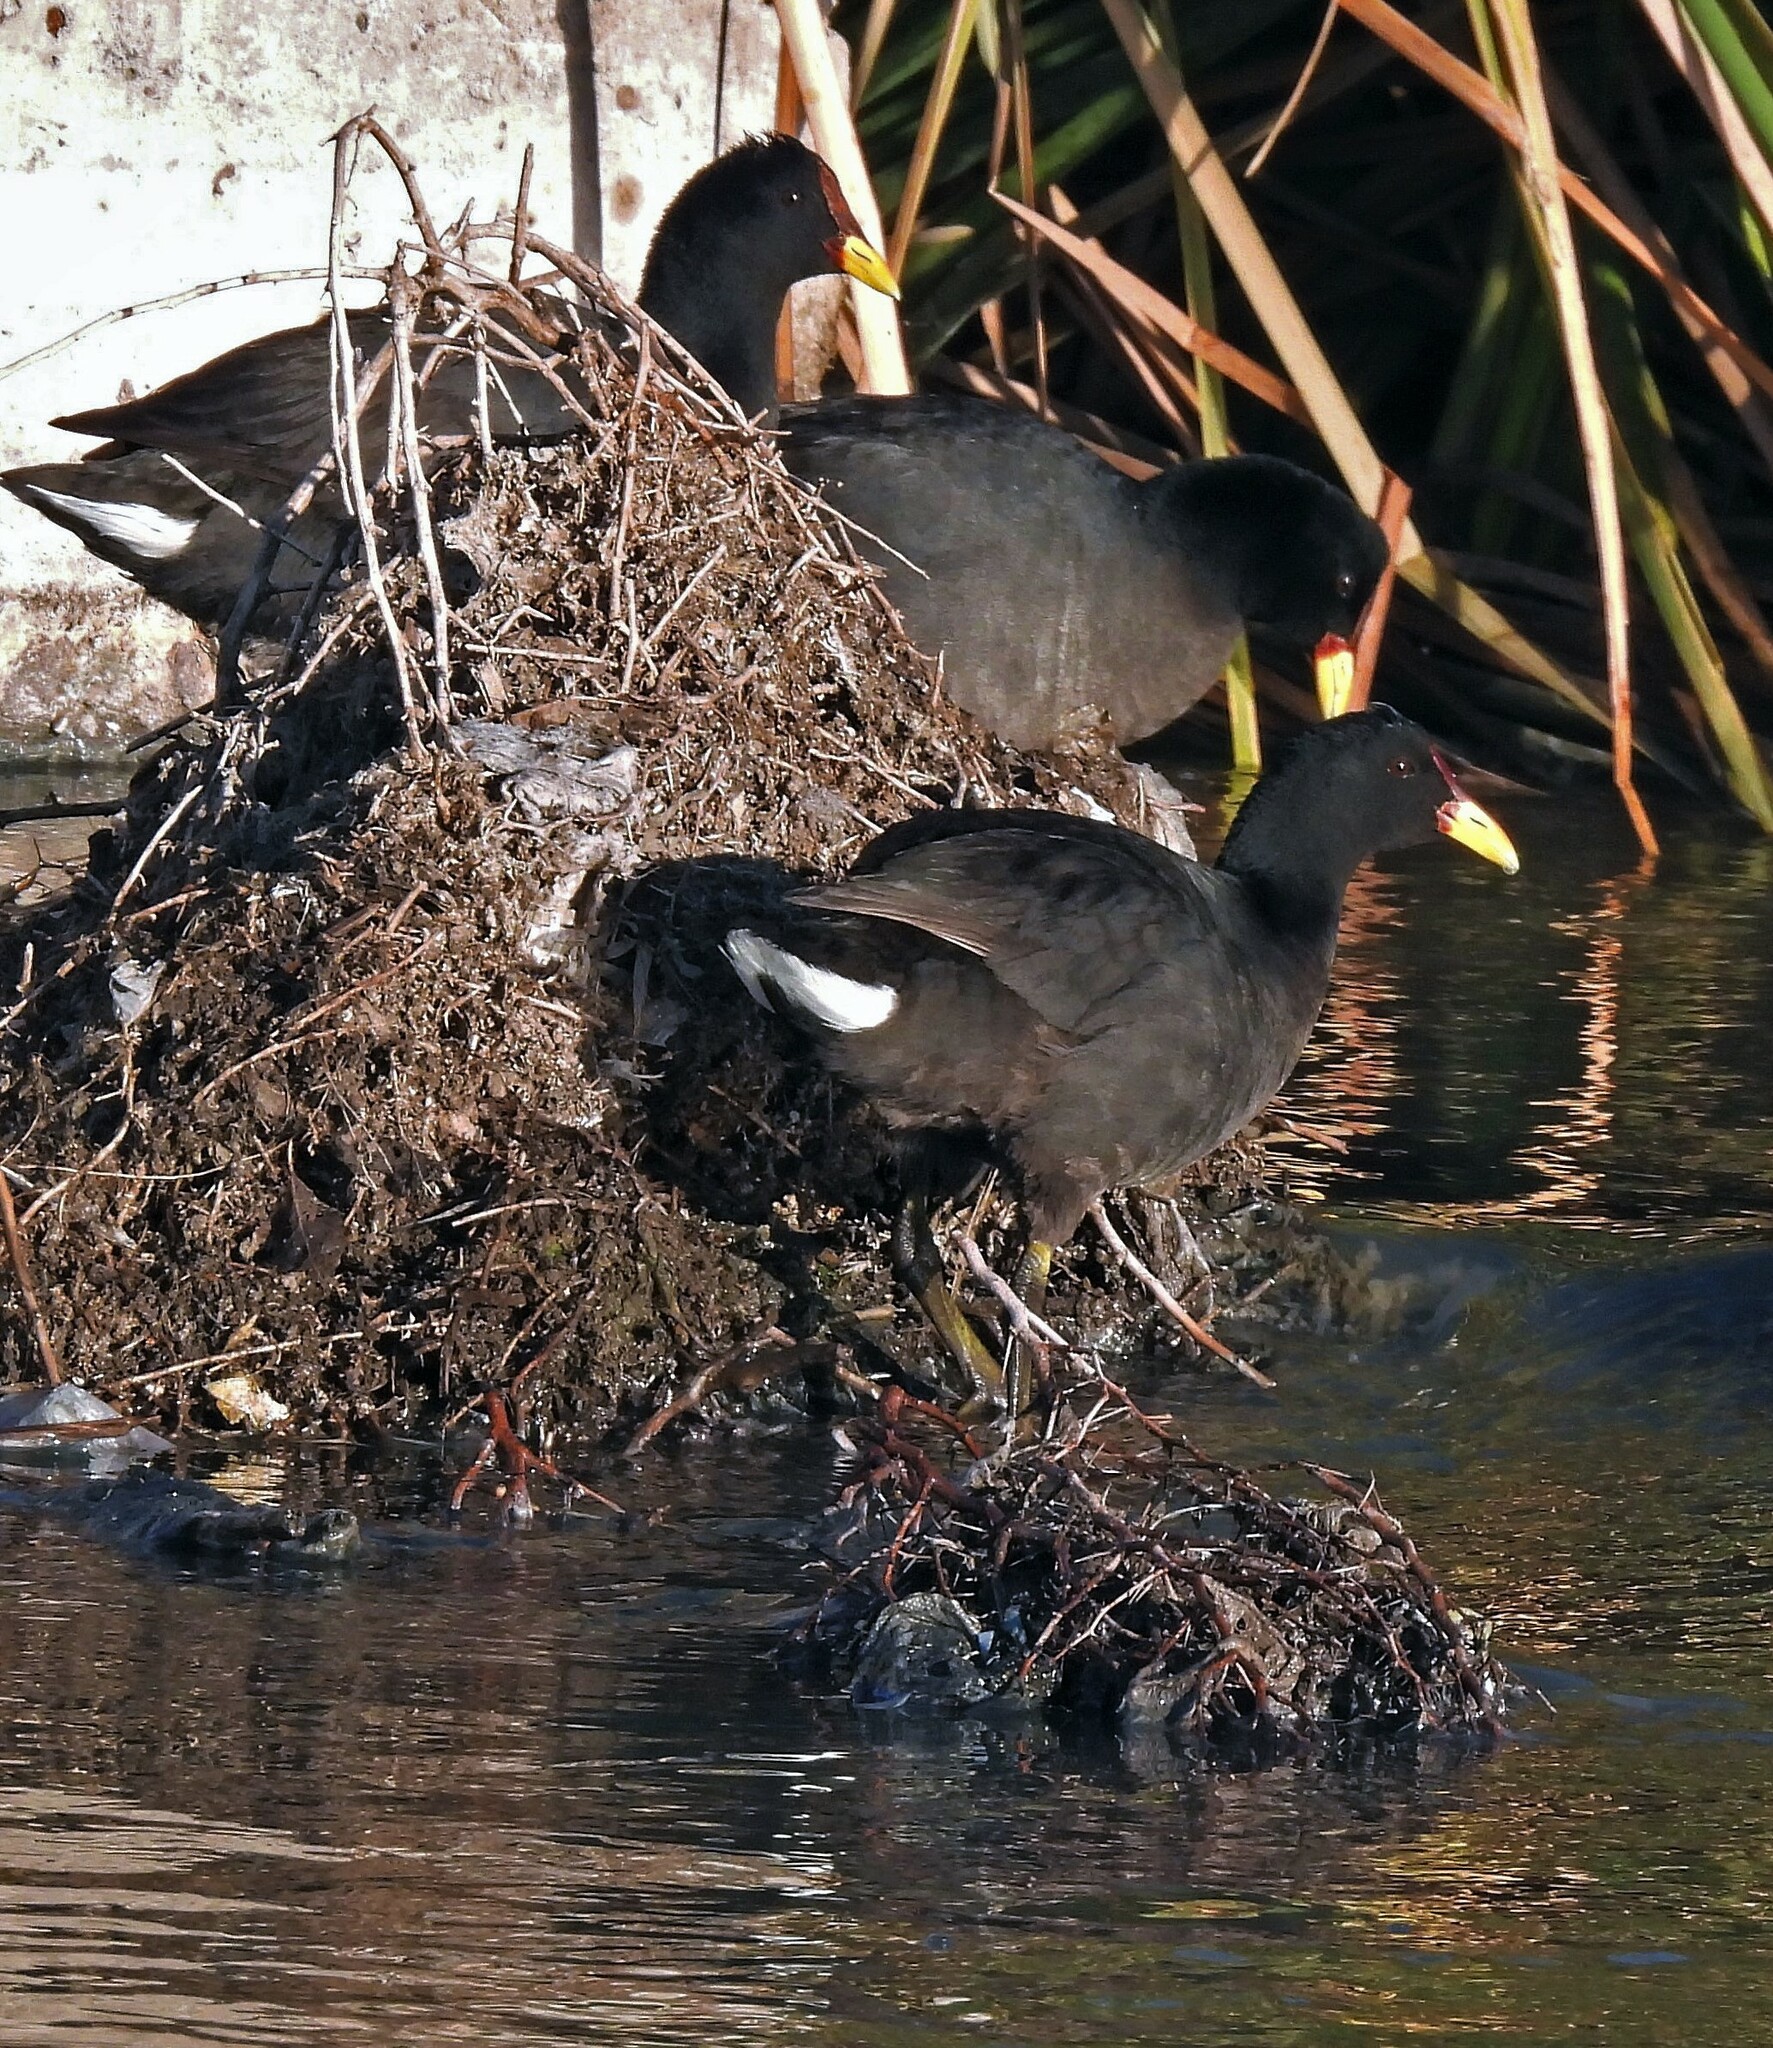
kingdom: Animalia
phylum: Chordata
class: Aves
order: Gruiformes
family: Rallidae
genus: Fulica
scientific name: Fulica rufifrons
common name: Red-fronted coot
